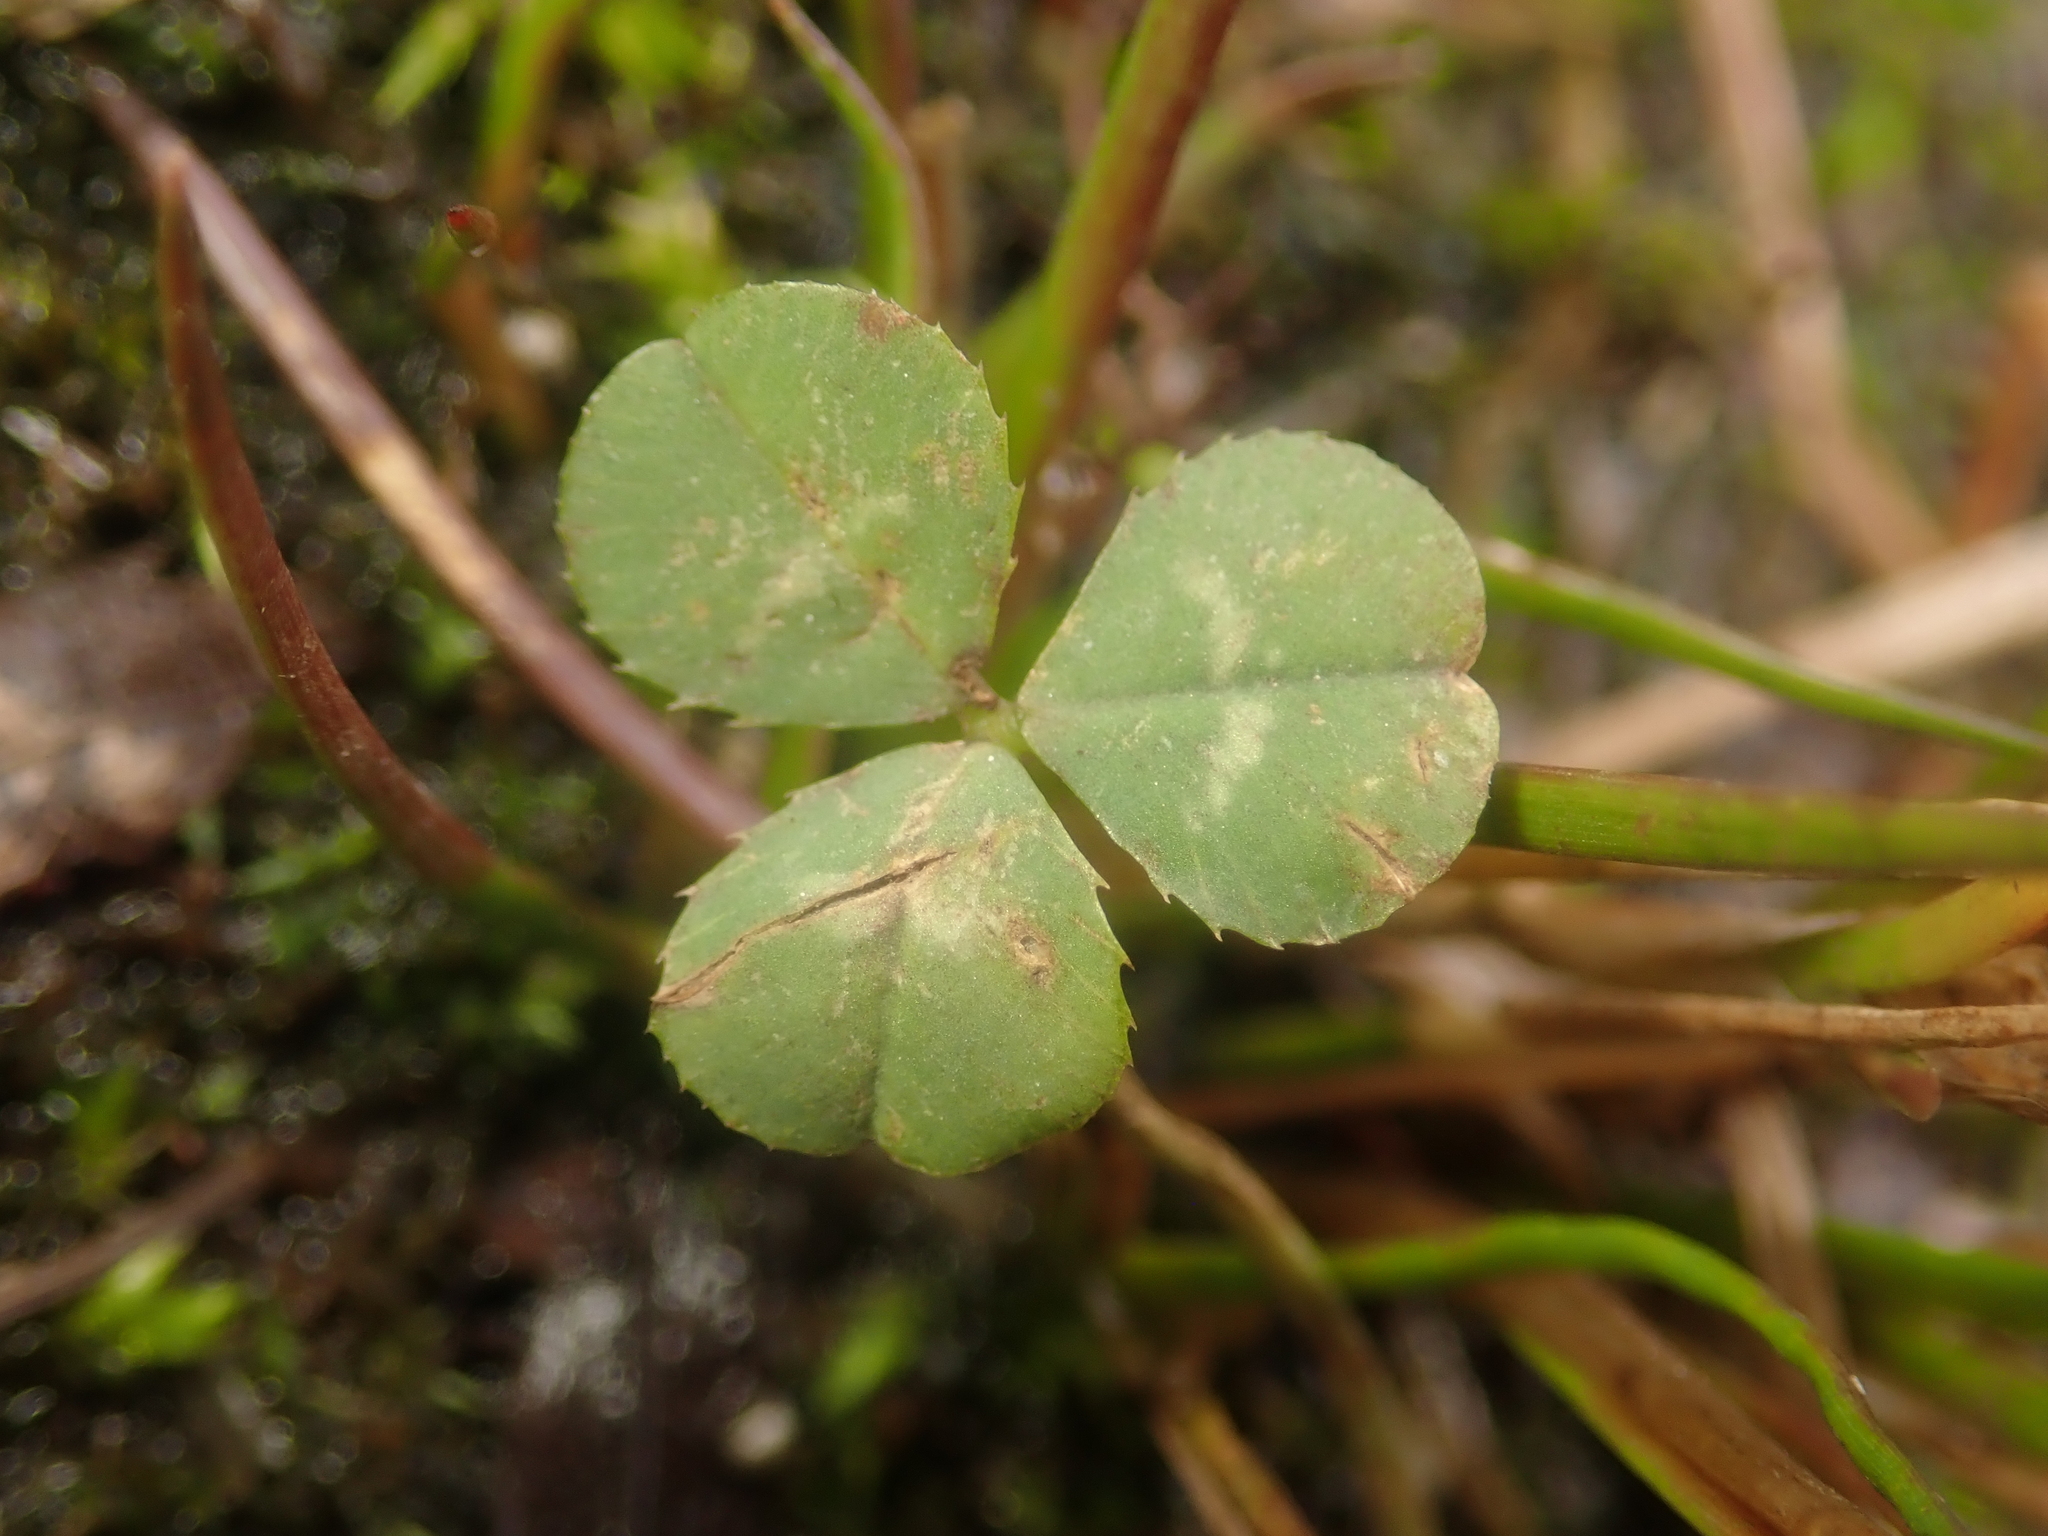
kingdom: Plantae
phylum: Tracheophyta
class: Magnoliopsida
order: Fabales
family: Fabaceae
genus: Trifolium
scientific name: Trifolium repens
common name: White clover
